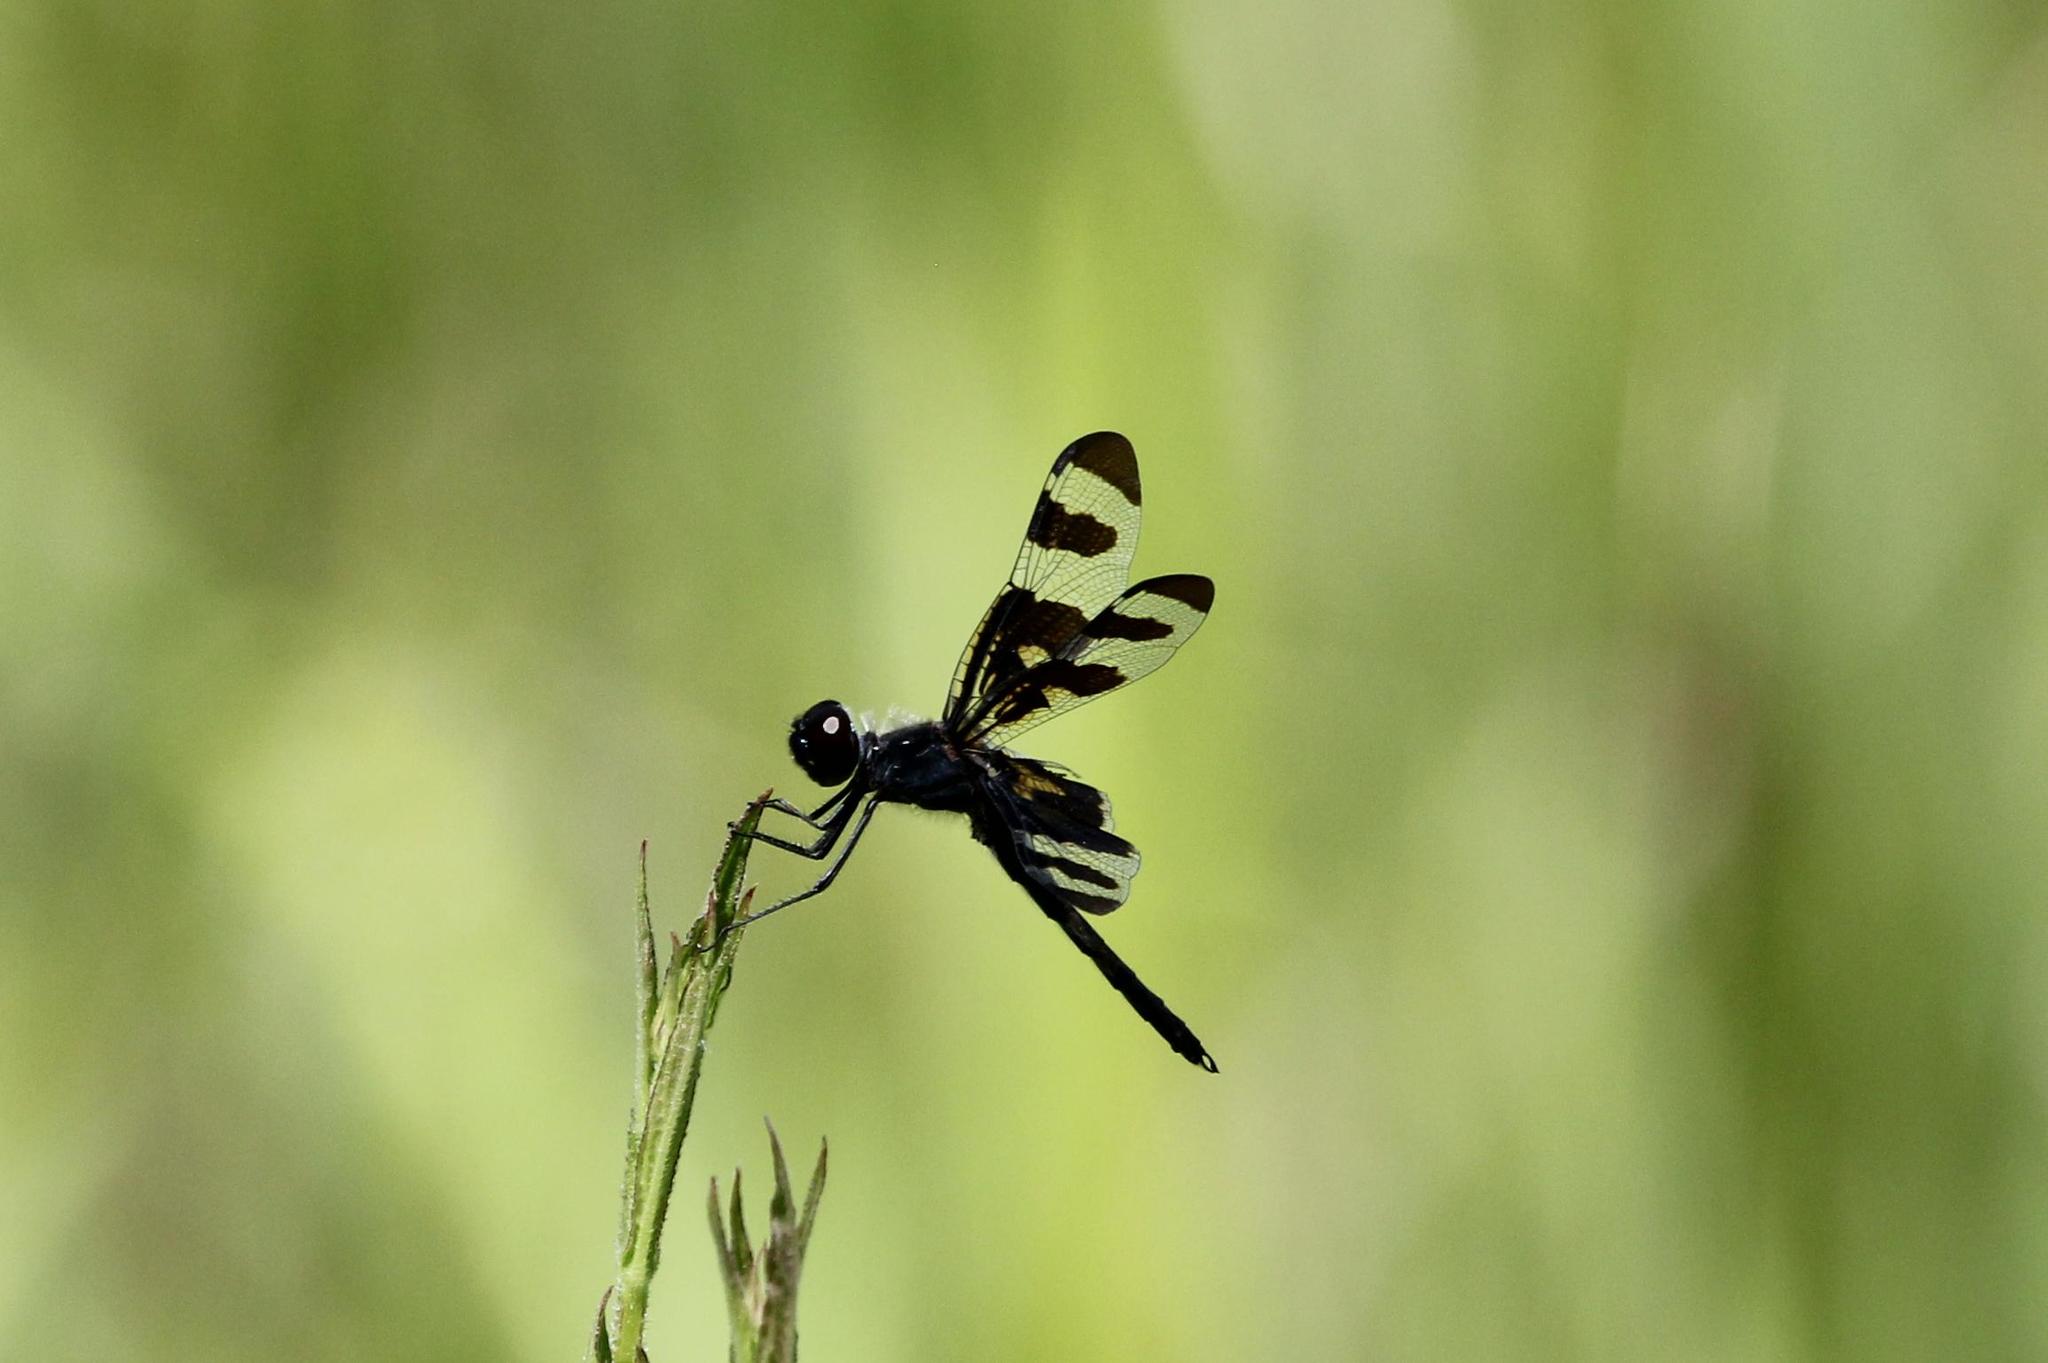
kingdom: Animalia
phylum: Arthropoda
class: Insecta
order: Odonata
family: Libellulidae
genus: Celithemis
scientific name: Celithemis fasciata
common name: Banded pennant
